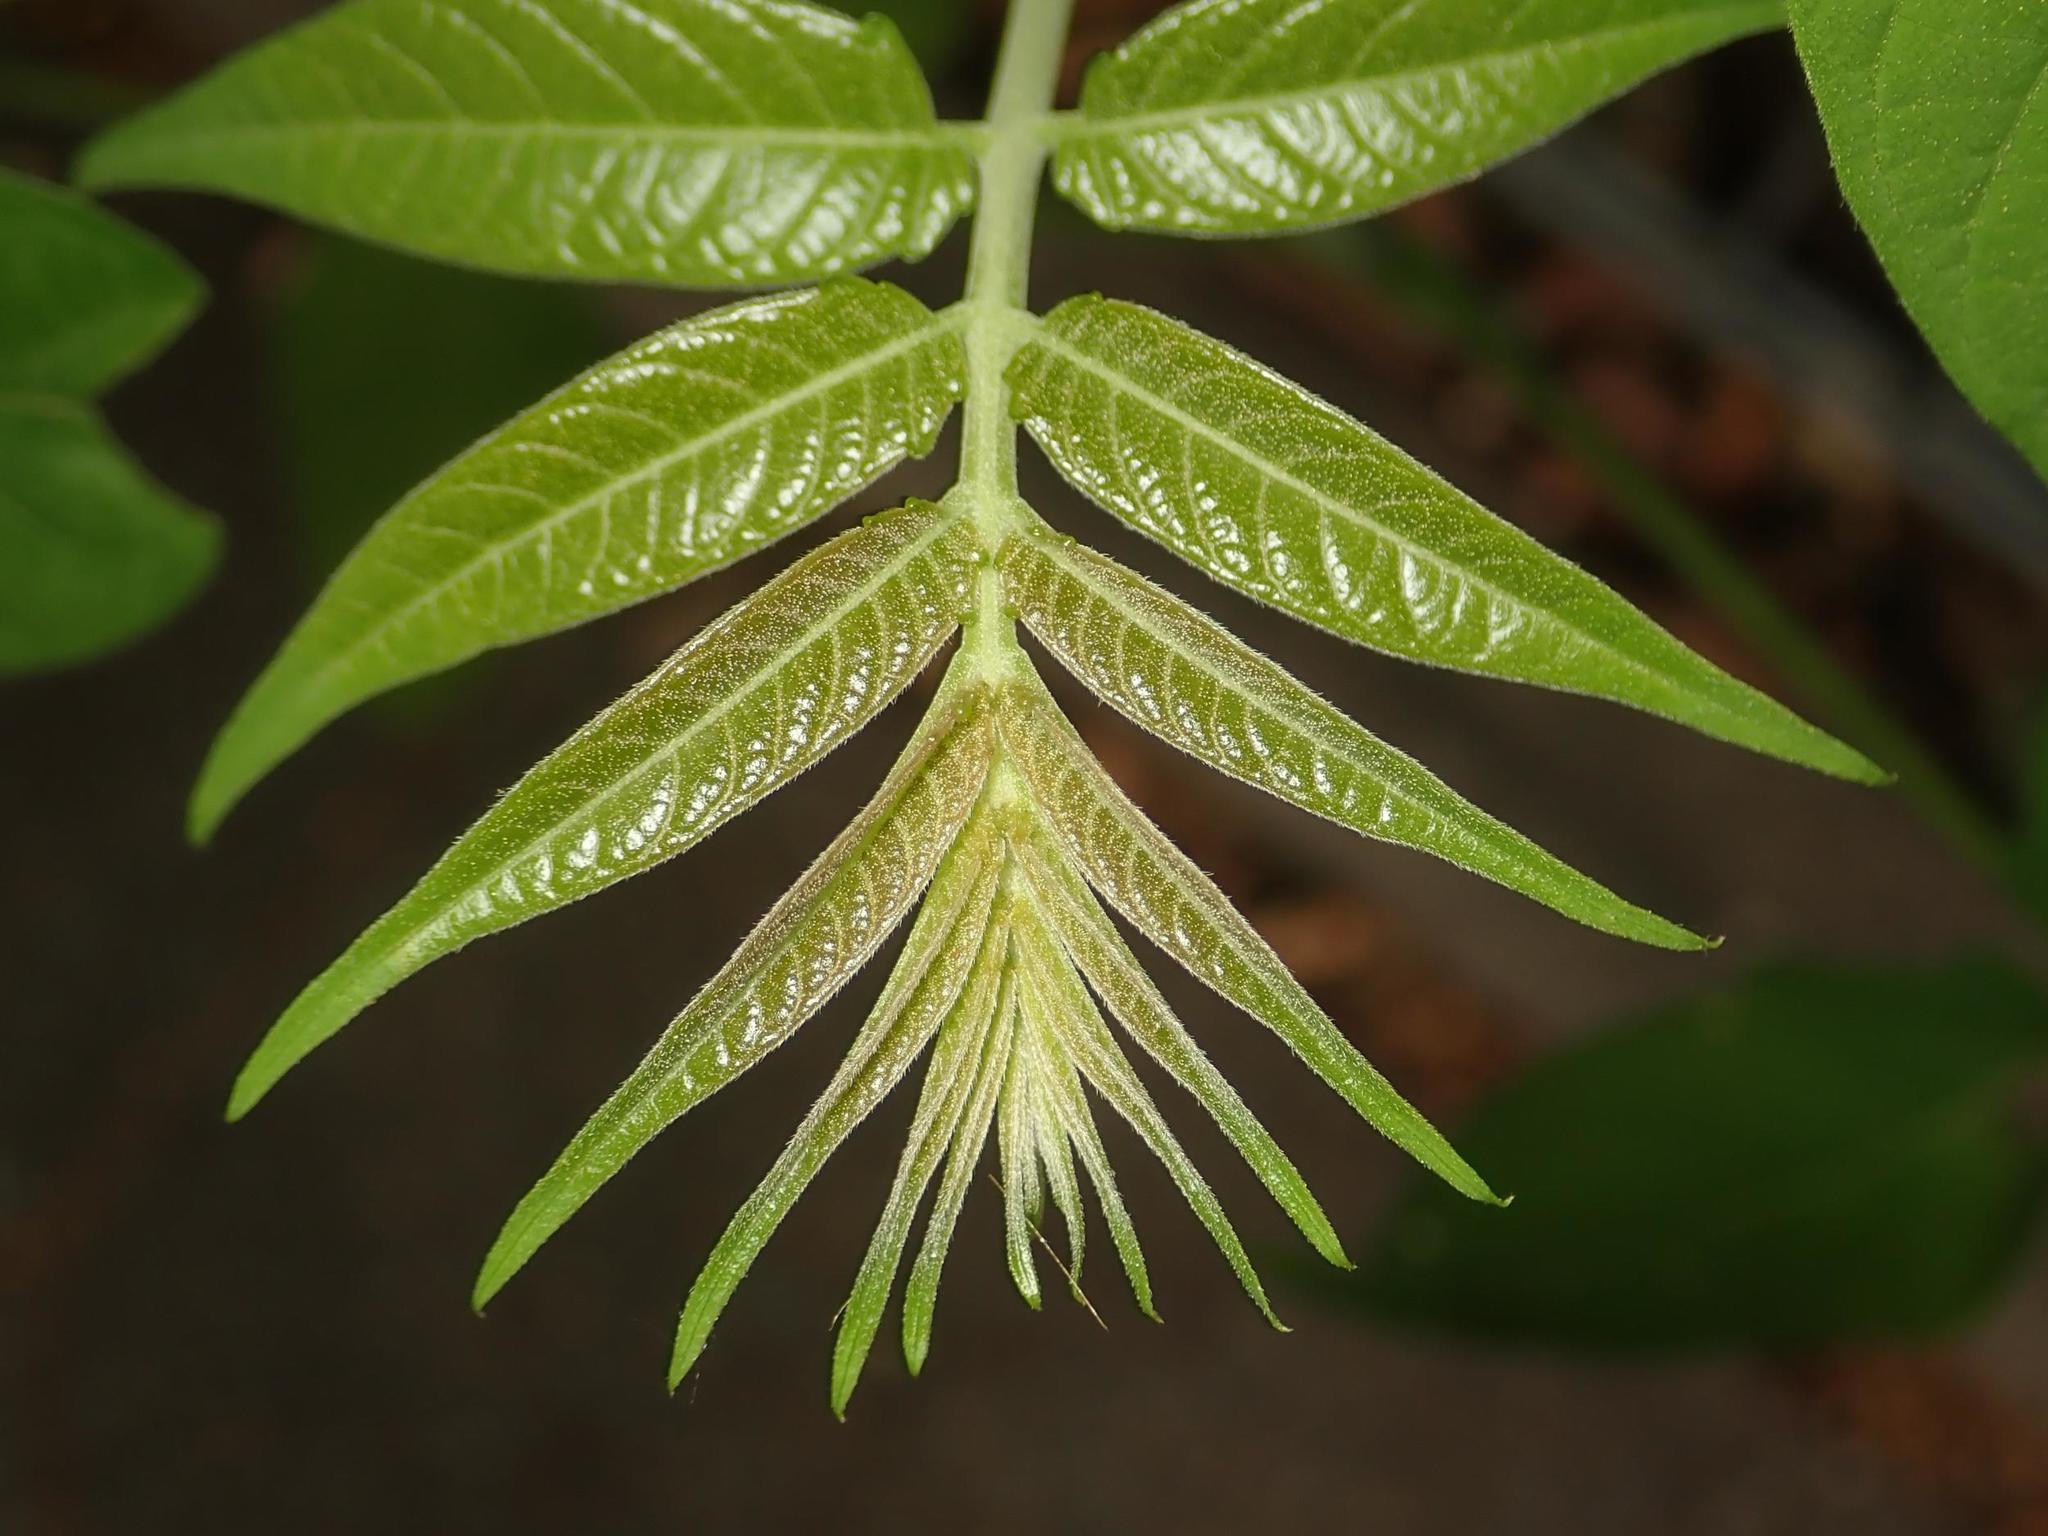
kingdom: Plantae
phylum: Tracheophyta
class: Magnoliopsida
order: Sapindales
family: Simaroubaceae
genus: Ailanthus
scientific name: Ailanthus altissima
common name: Tree-of-heaven
